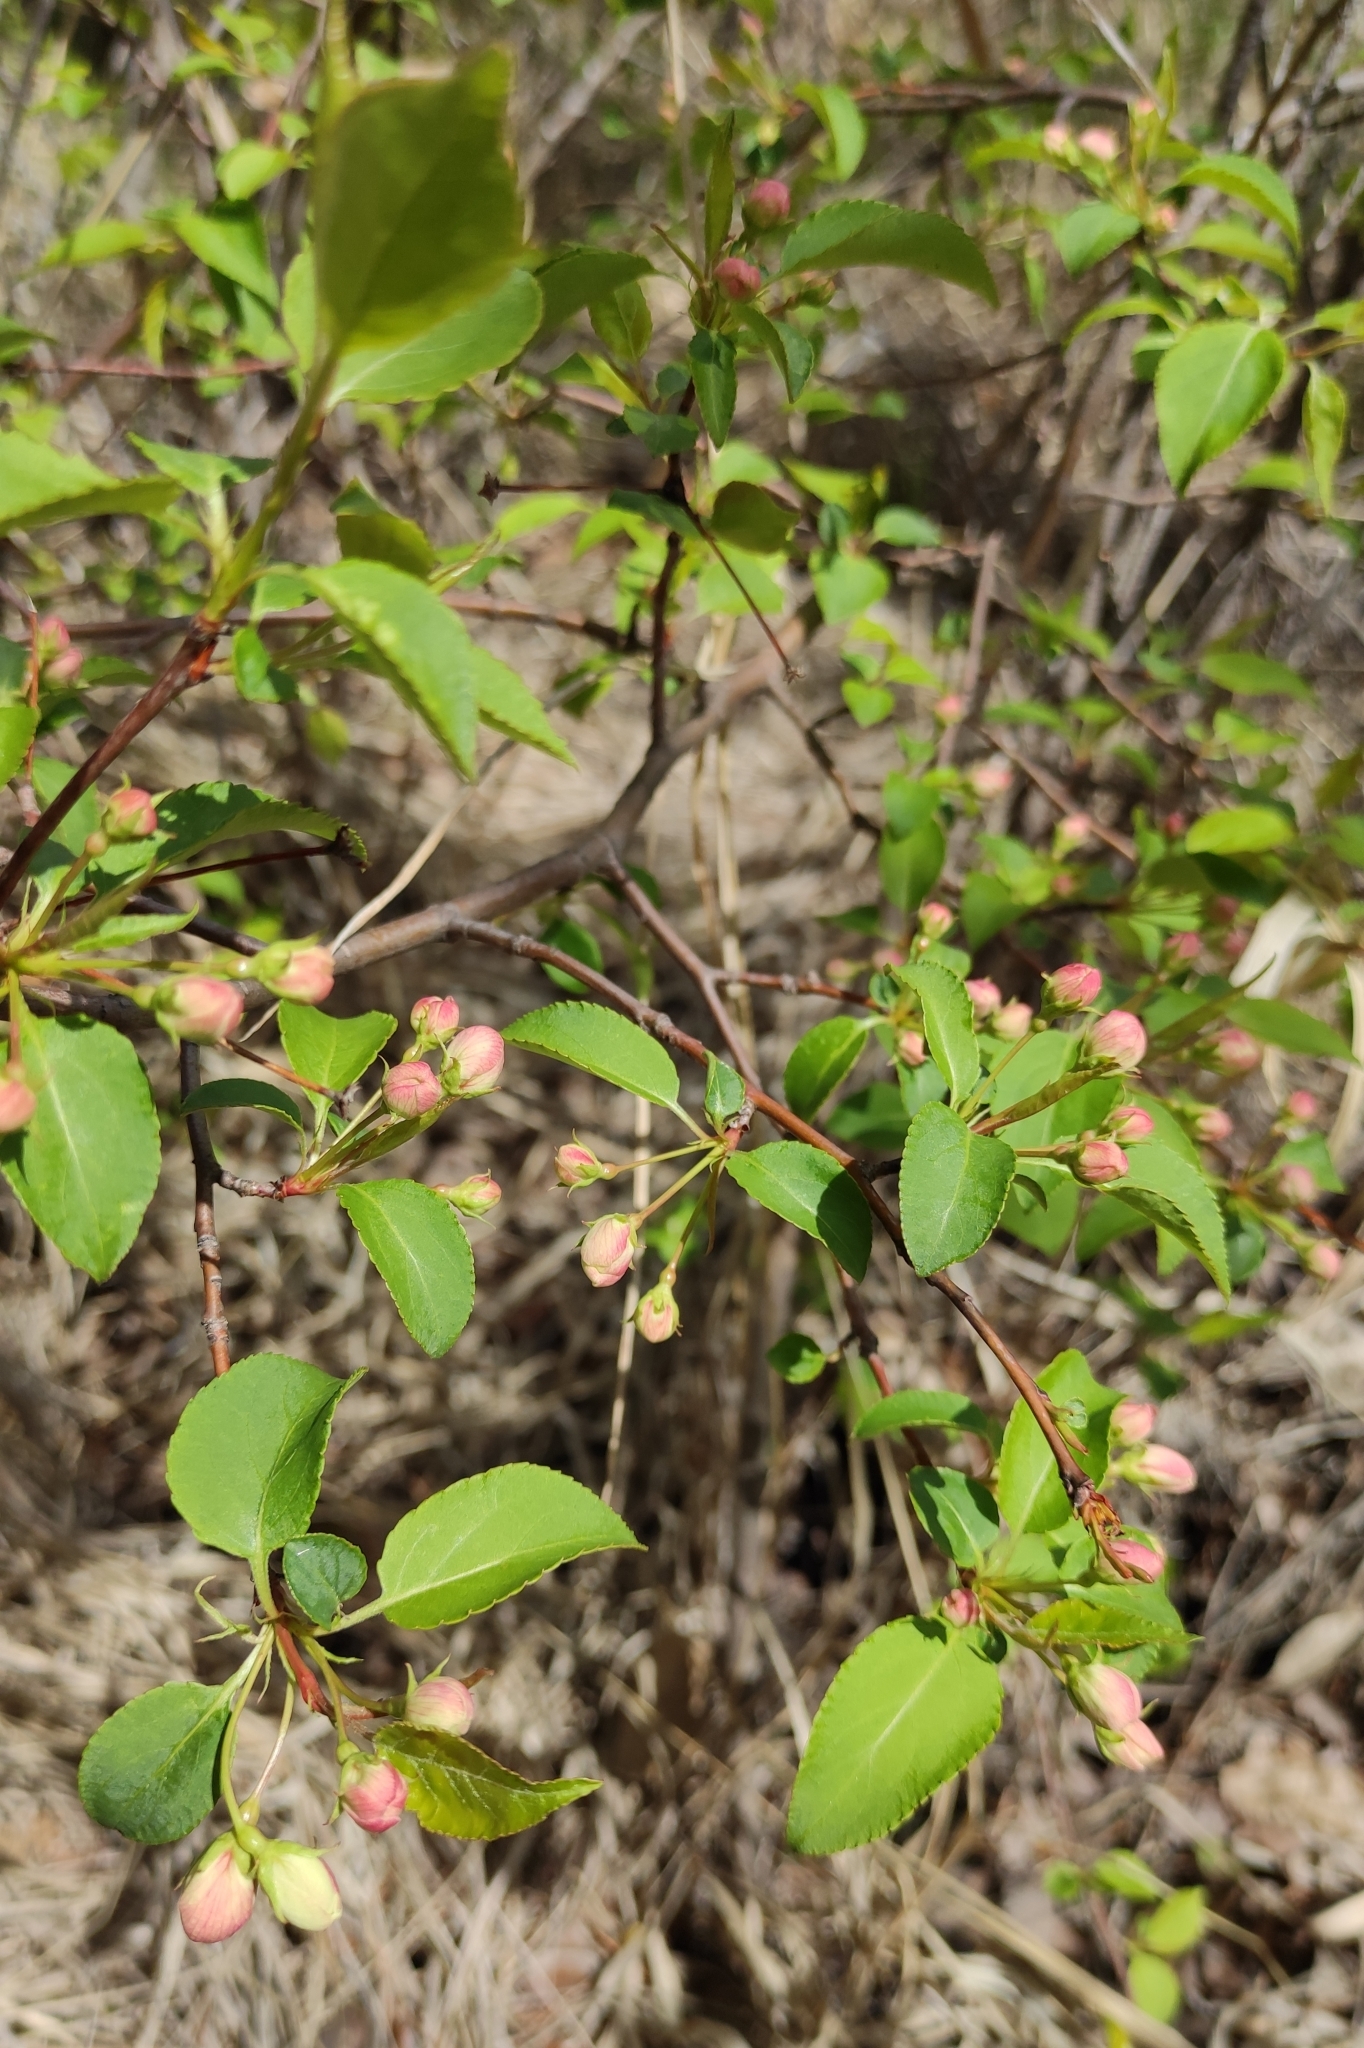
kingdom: Plantae
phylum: Tracheophyta
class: Magnoliopsida
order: Rosales
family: Rosaceae
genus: Malus
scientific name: Malus baccata
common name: Siberian crab
